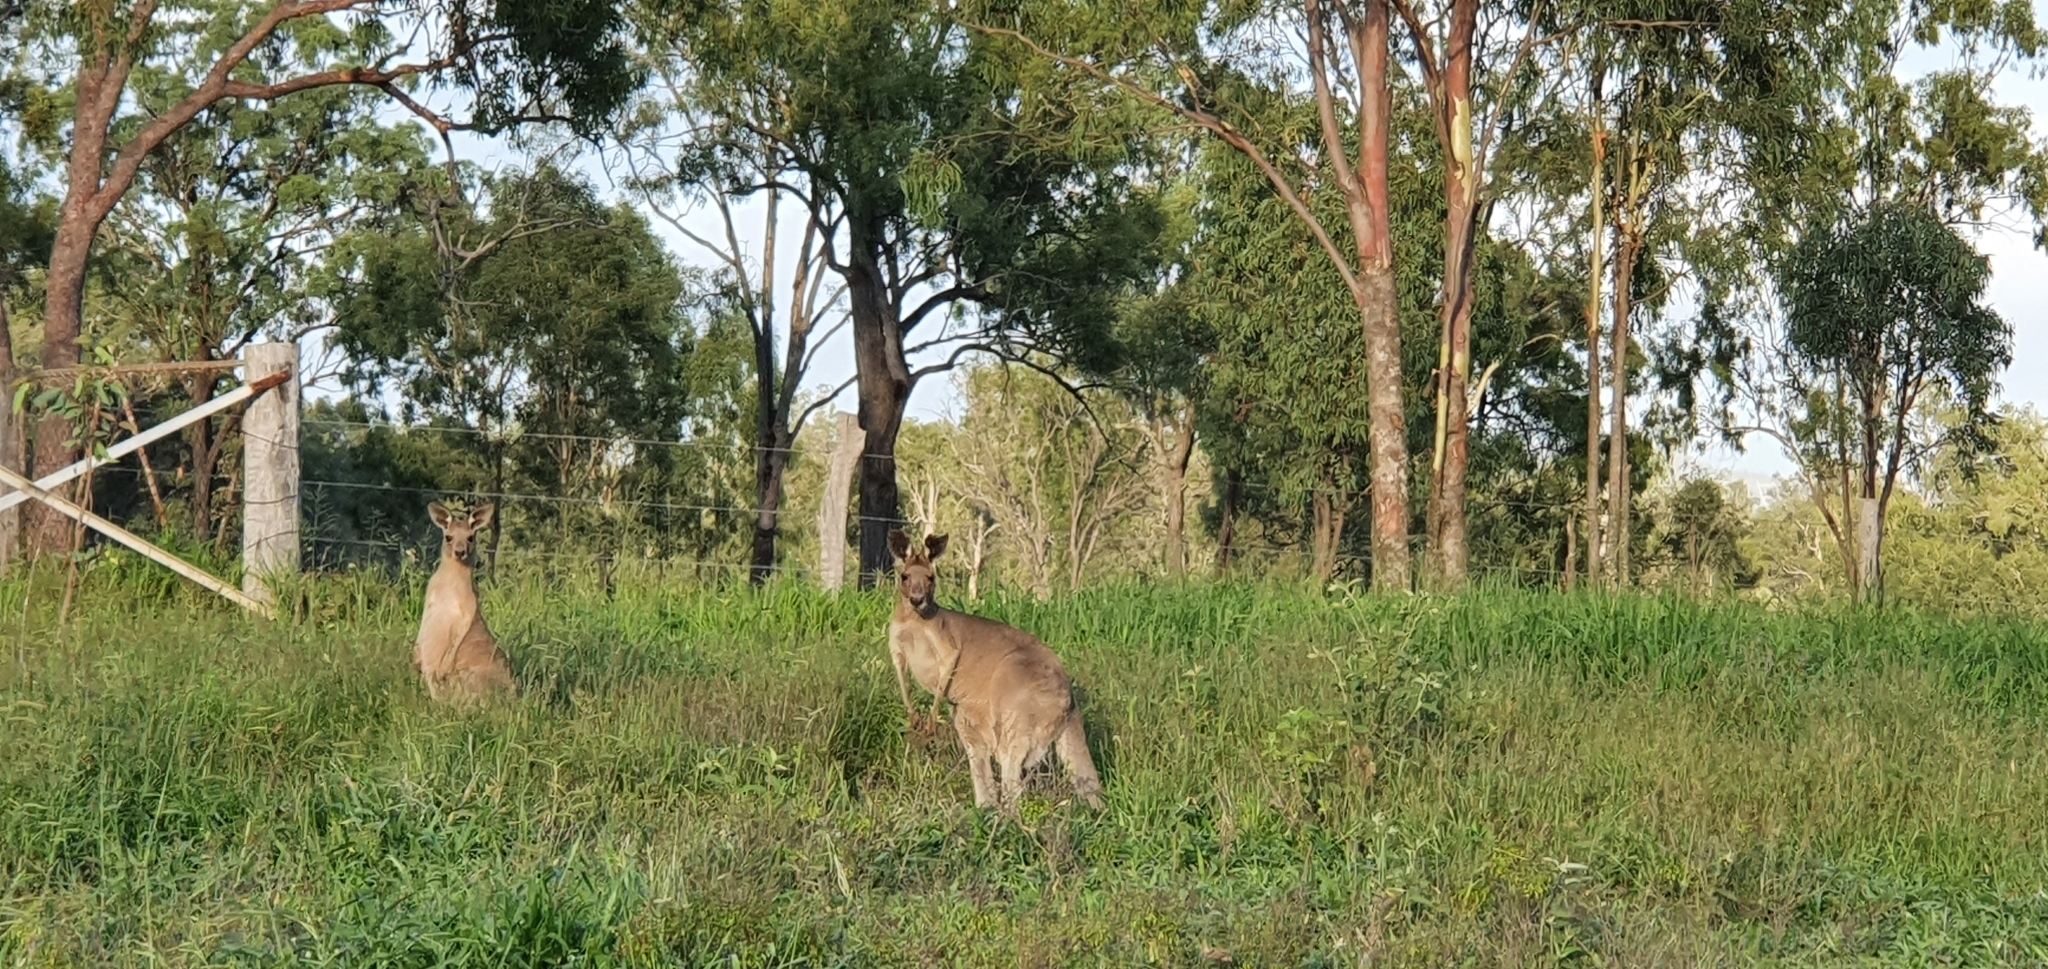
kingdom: Animalia
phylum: Chordata
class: Mammalia
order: Diprotodontia
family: Macropodidae
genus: Macropus
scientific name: Macropus giganteus
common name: Eastern grey kangaroo
